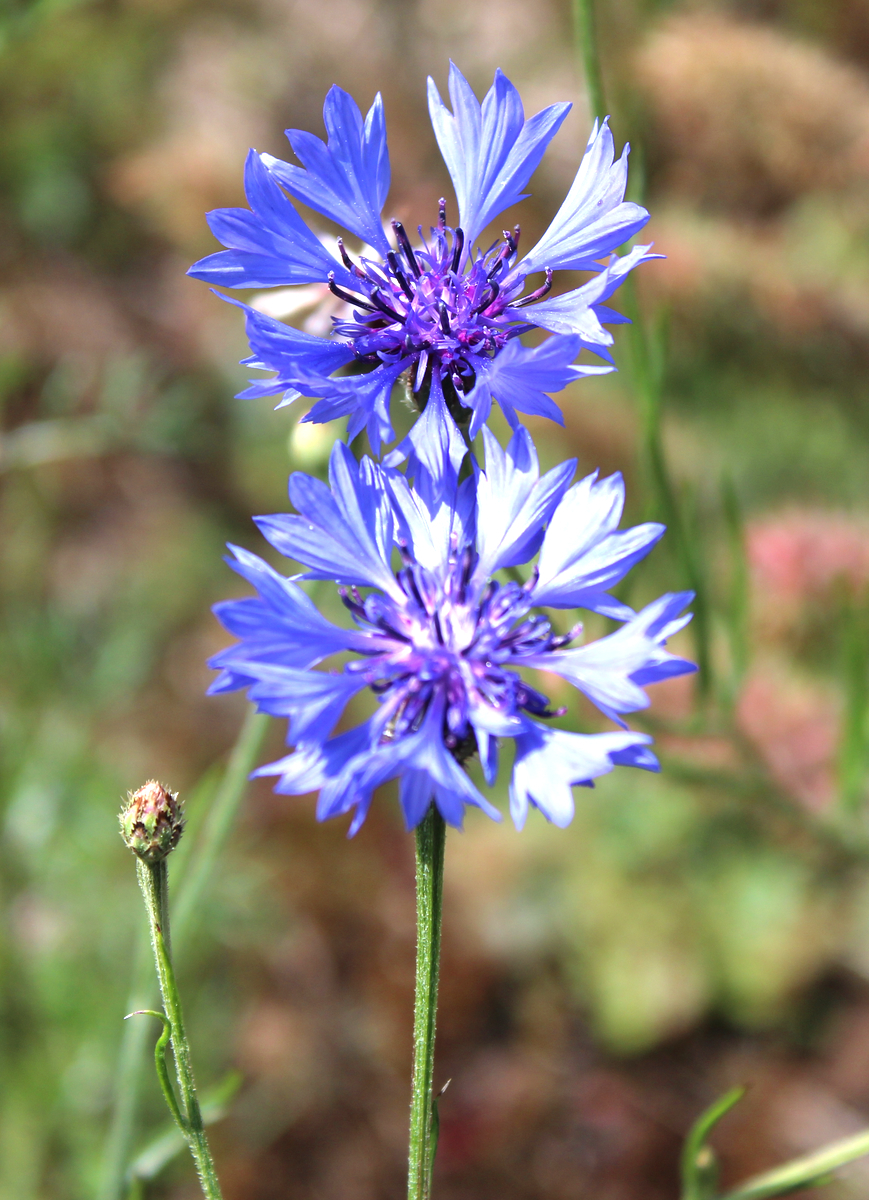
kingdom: Plantae
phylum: Tracheophyta
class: Magnoliopsida
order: Asterales
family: Asteraceae
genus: Centaurea
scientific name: Centaurea cyanus
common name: Cornflower
